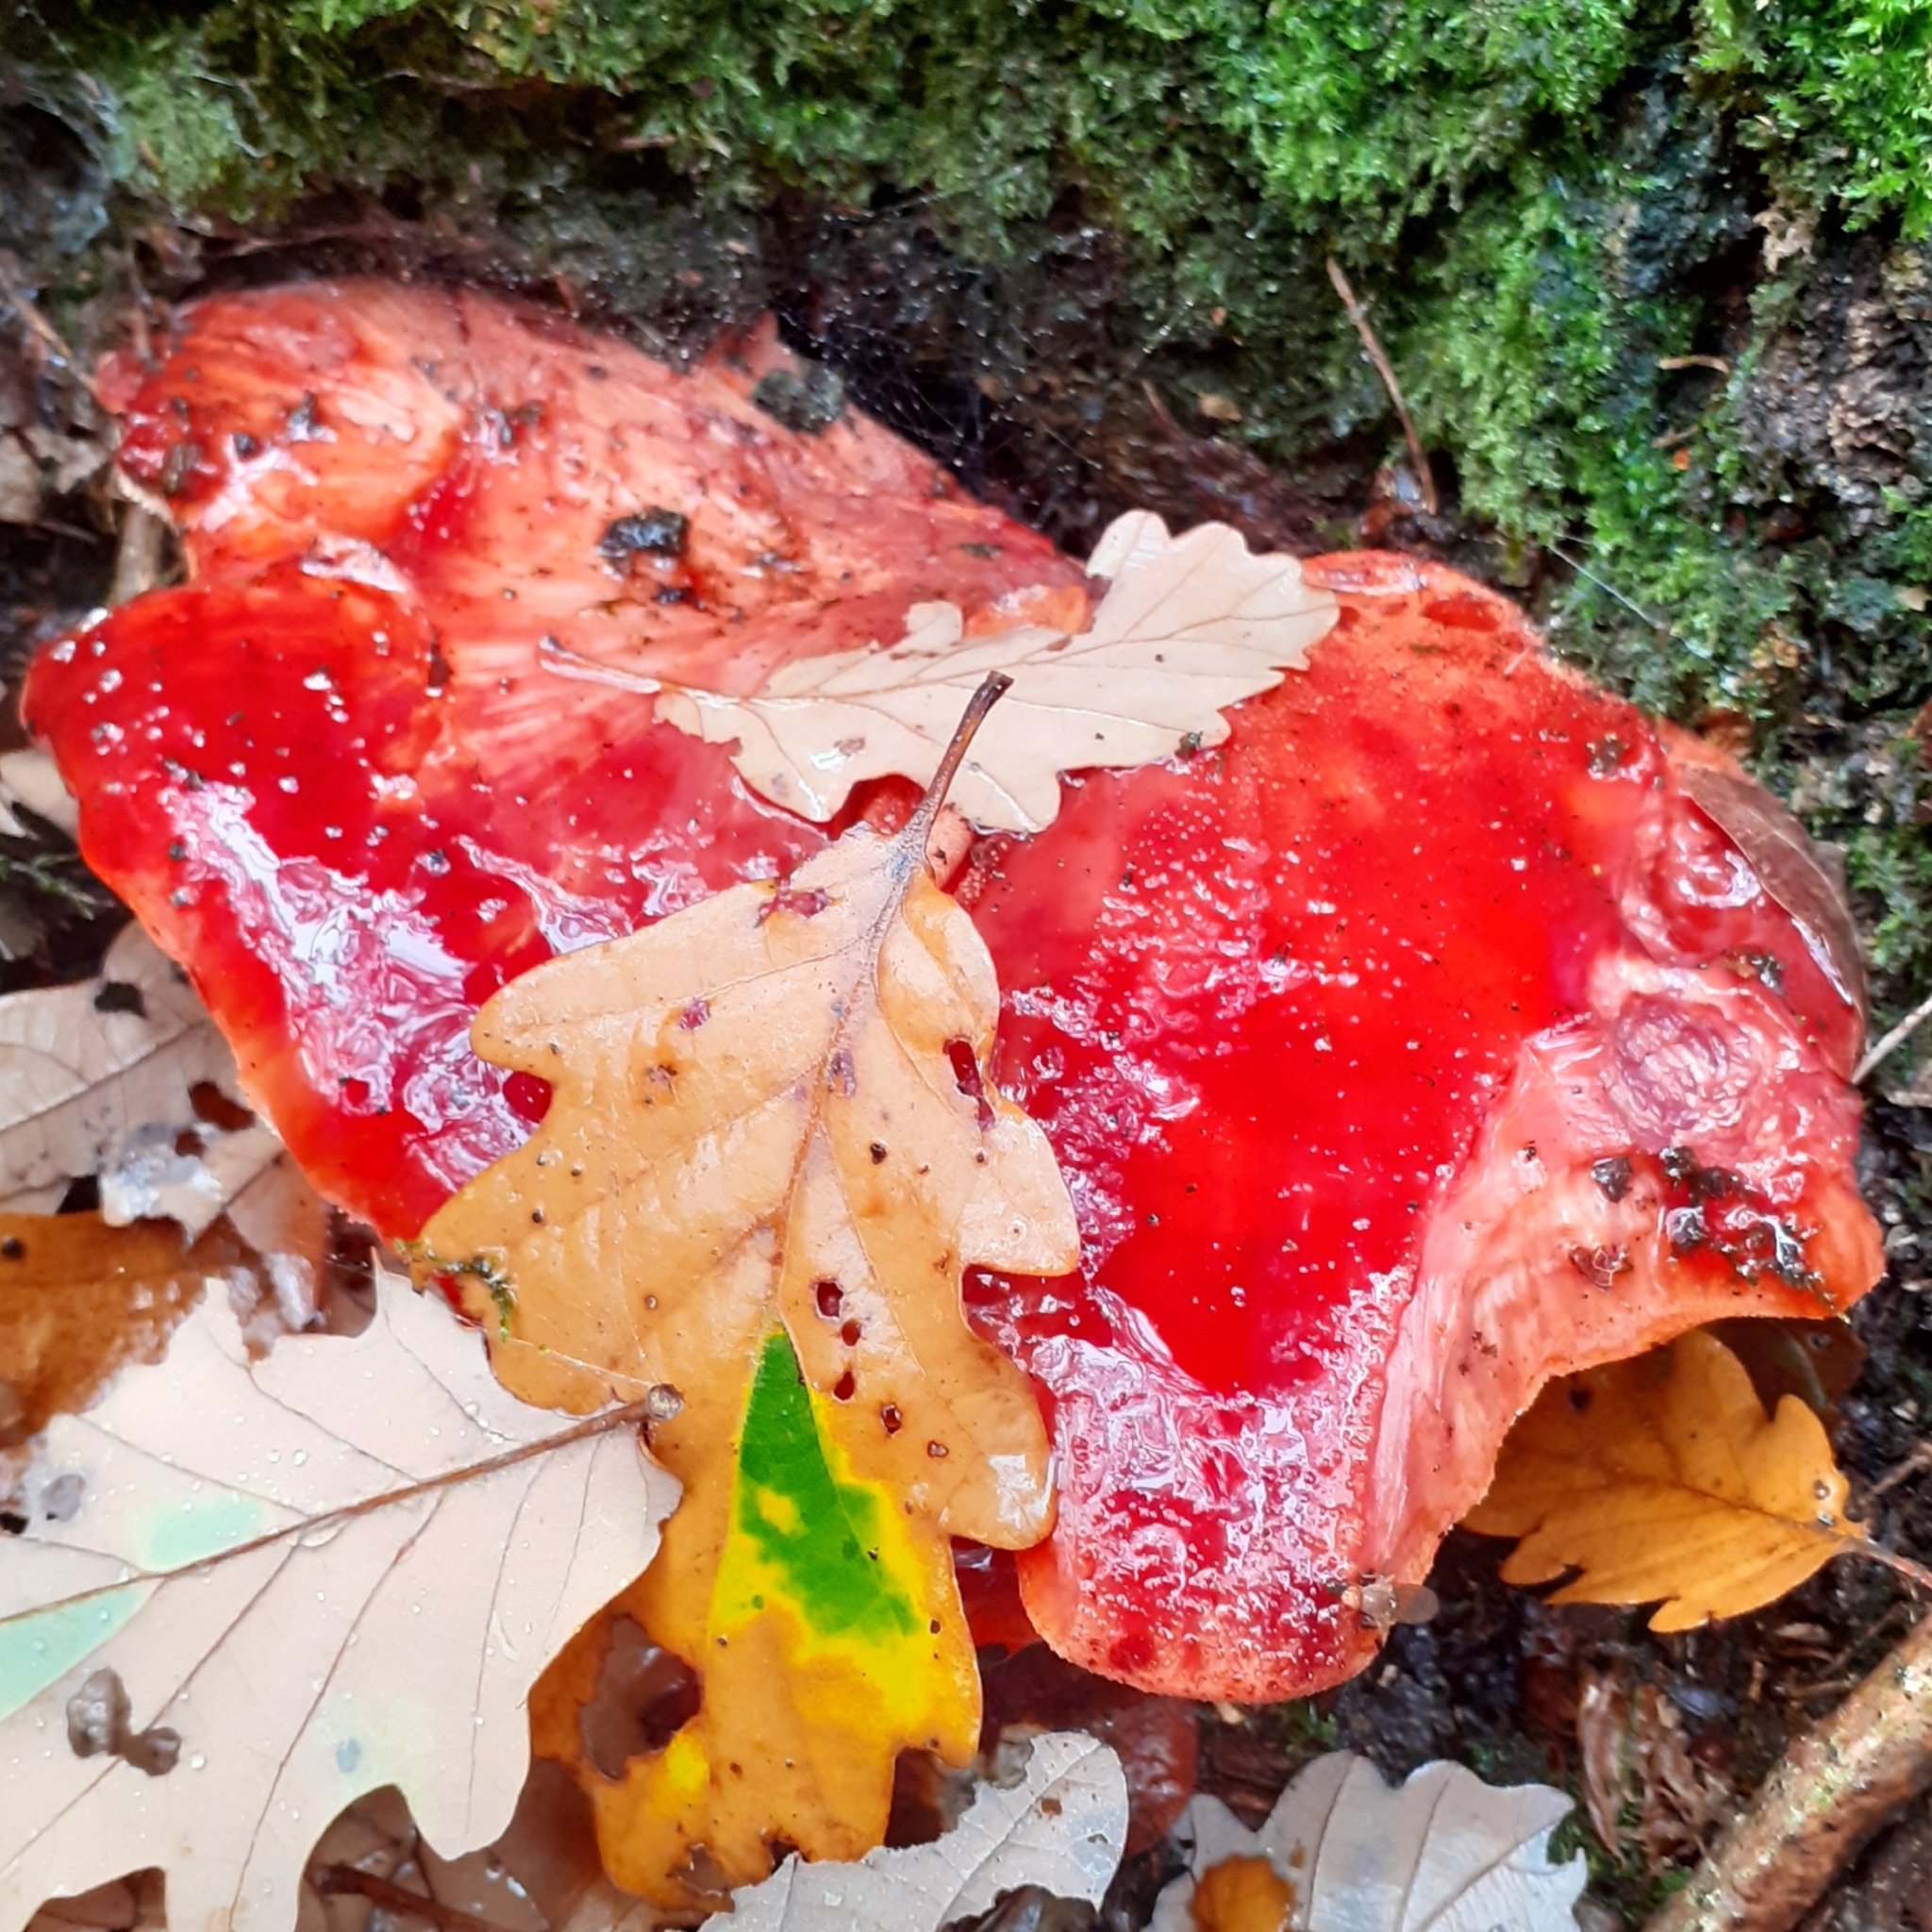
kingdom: Fungi
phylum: Basidiomycota
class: Agaricomycetes
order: Agaricales
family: Fistulinaceae
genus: Fistulina
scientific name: Fistulina hepatica
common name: Beef-steak fungus
